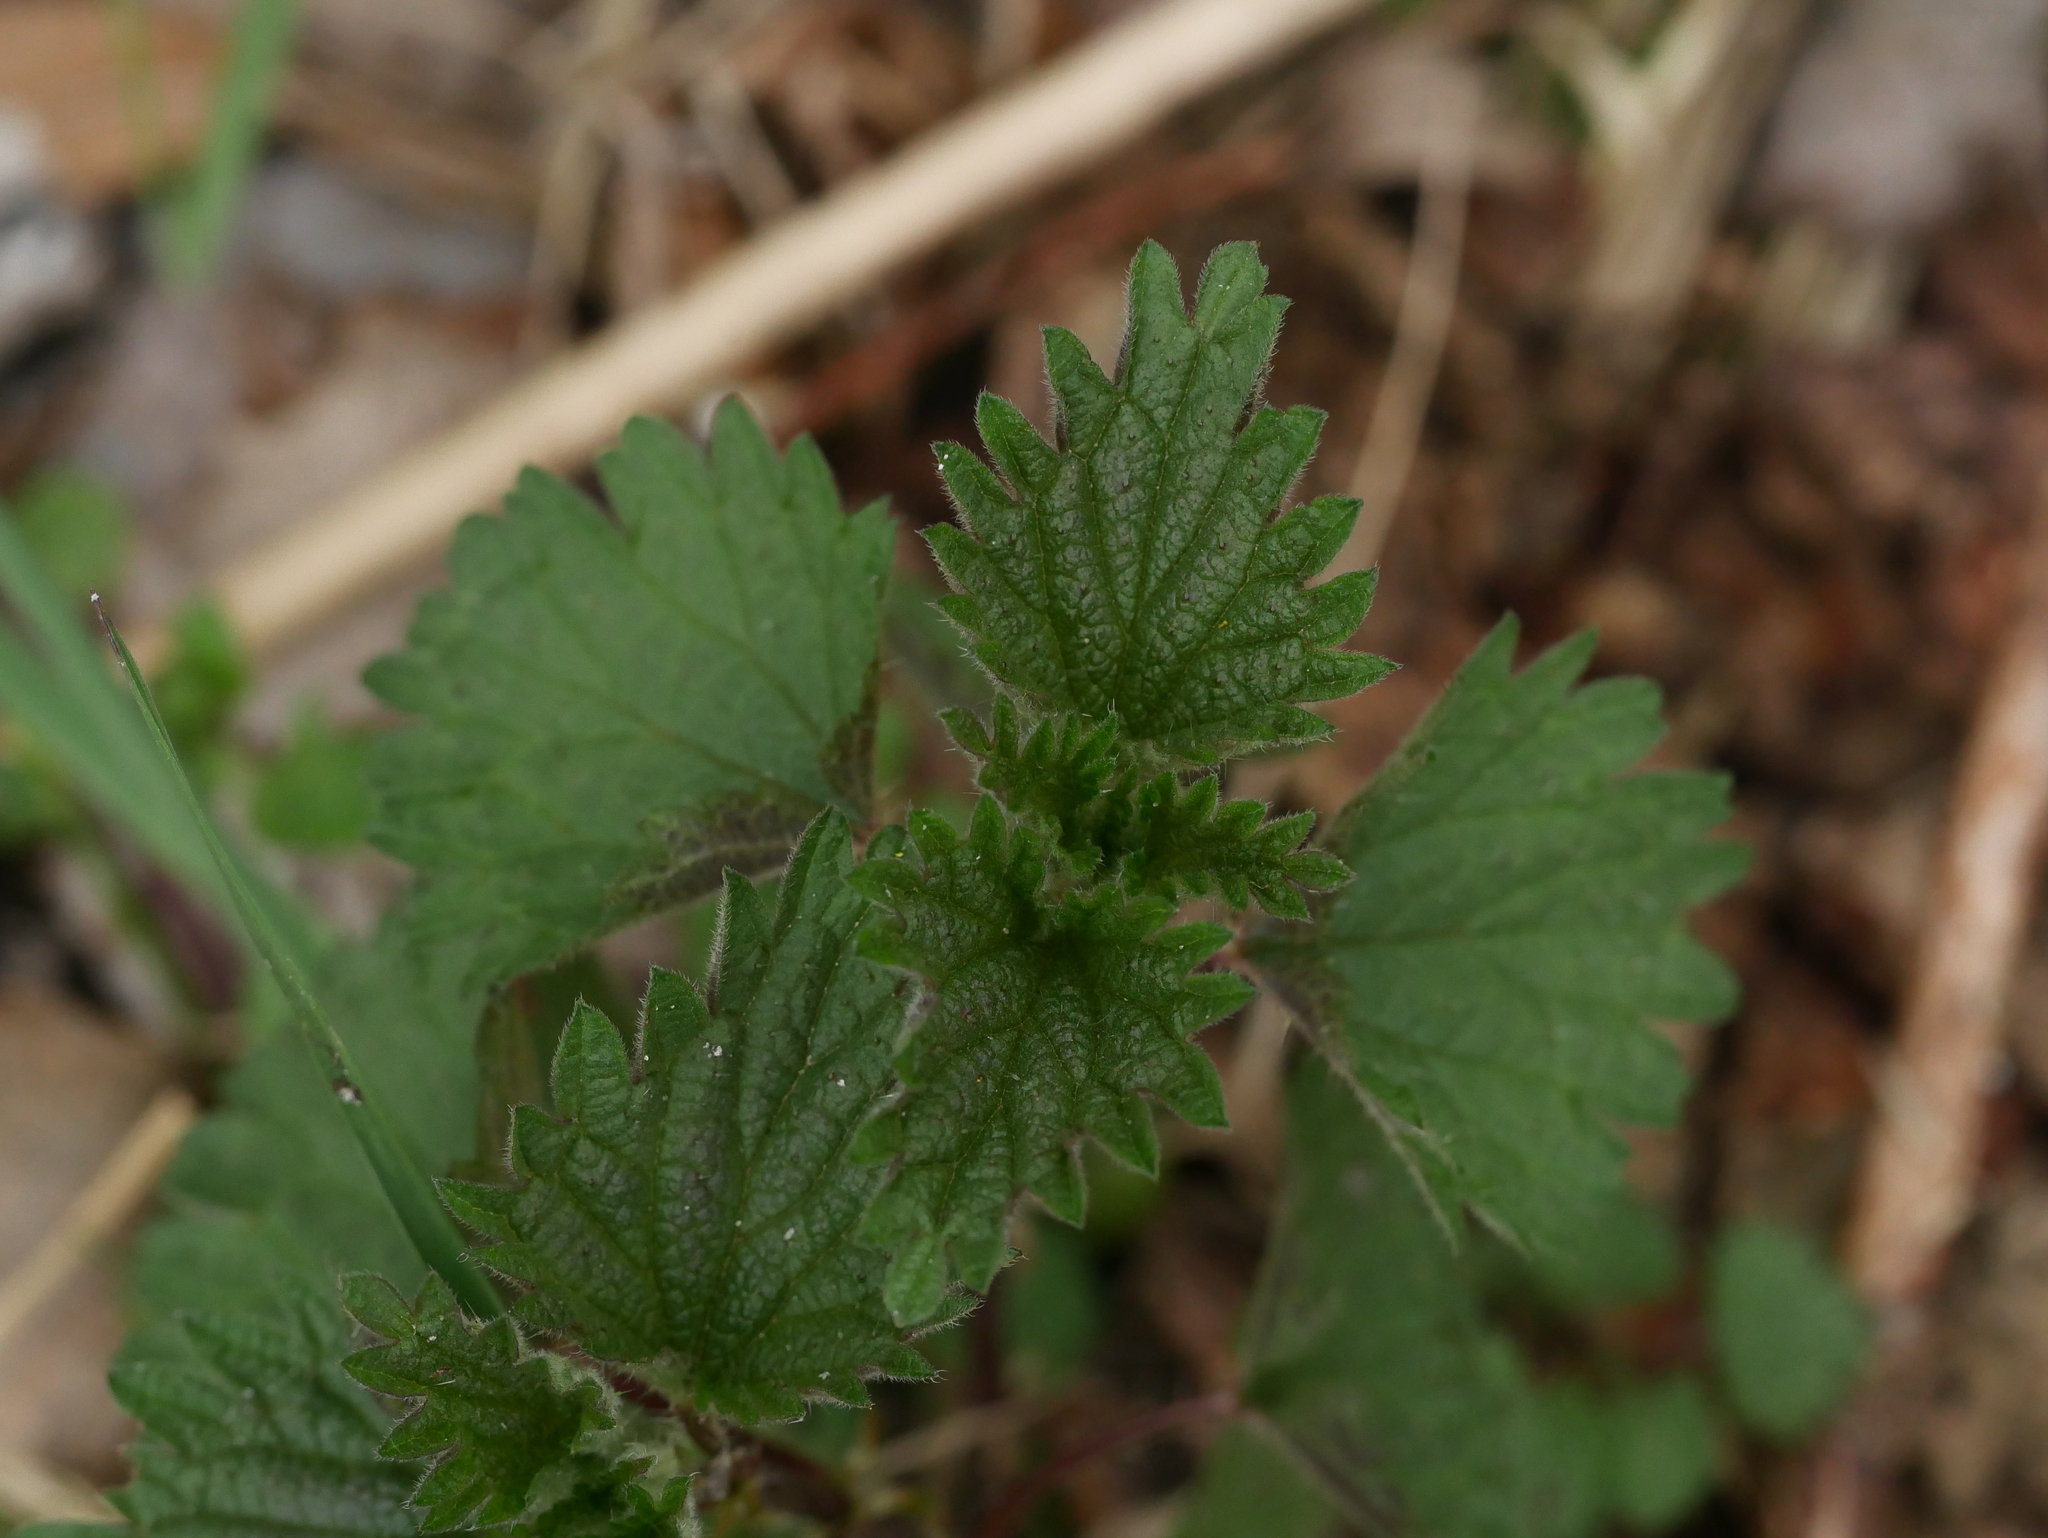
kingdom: Plantae
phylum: Tracheophyta
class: Magnoliopsida
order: Rosales
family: Urticaceae
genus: Urtica
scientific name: Urtica dioica
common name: Common nettle
